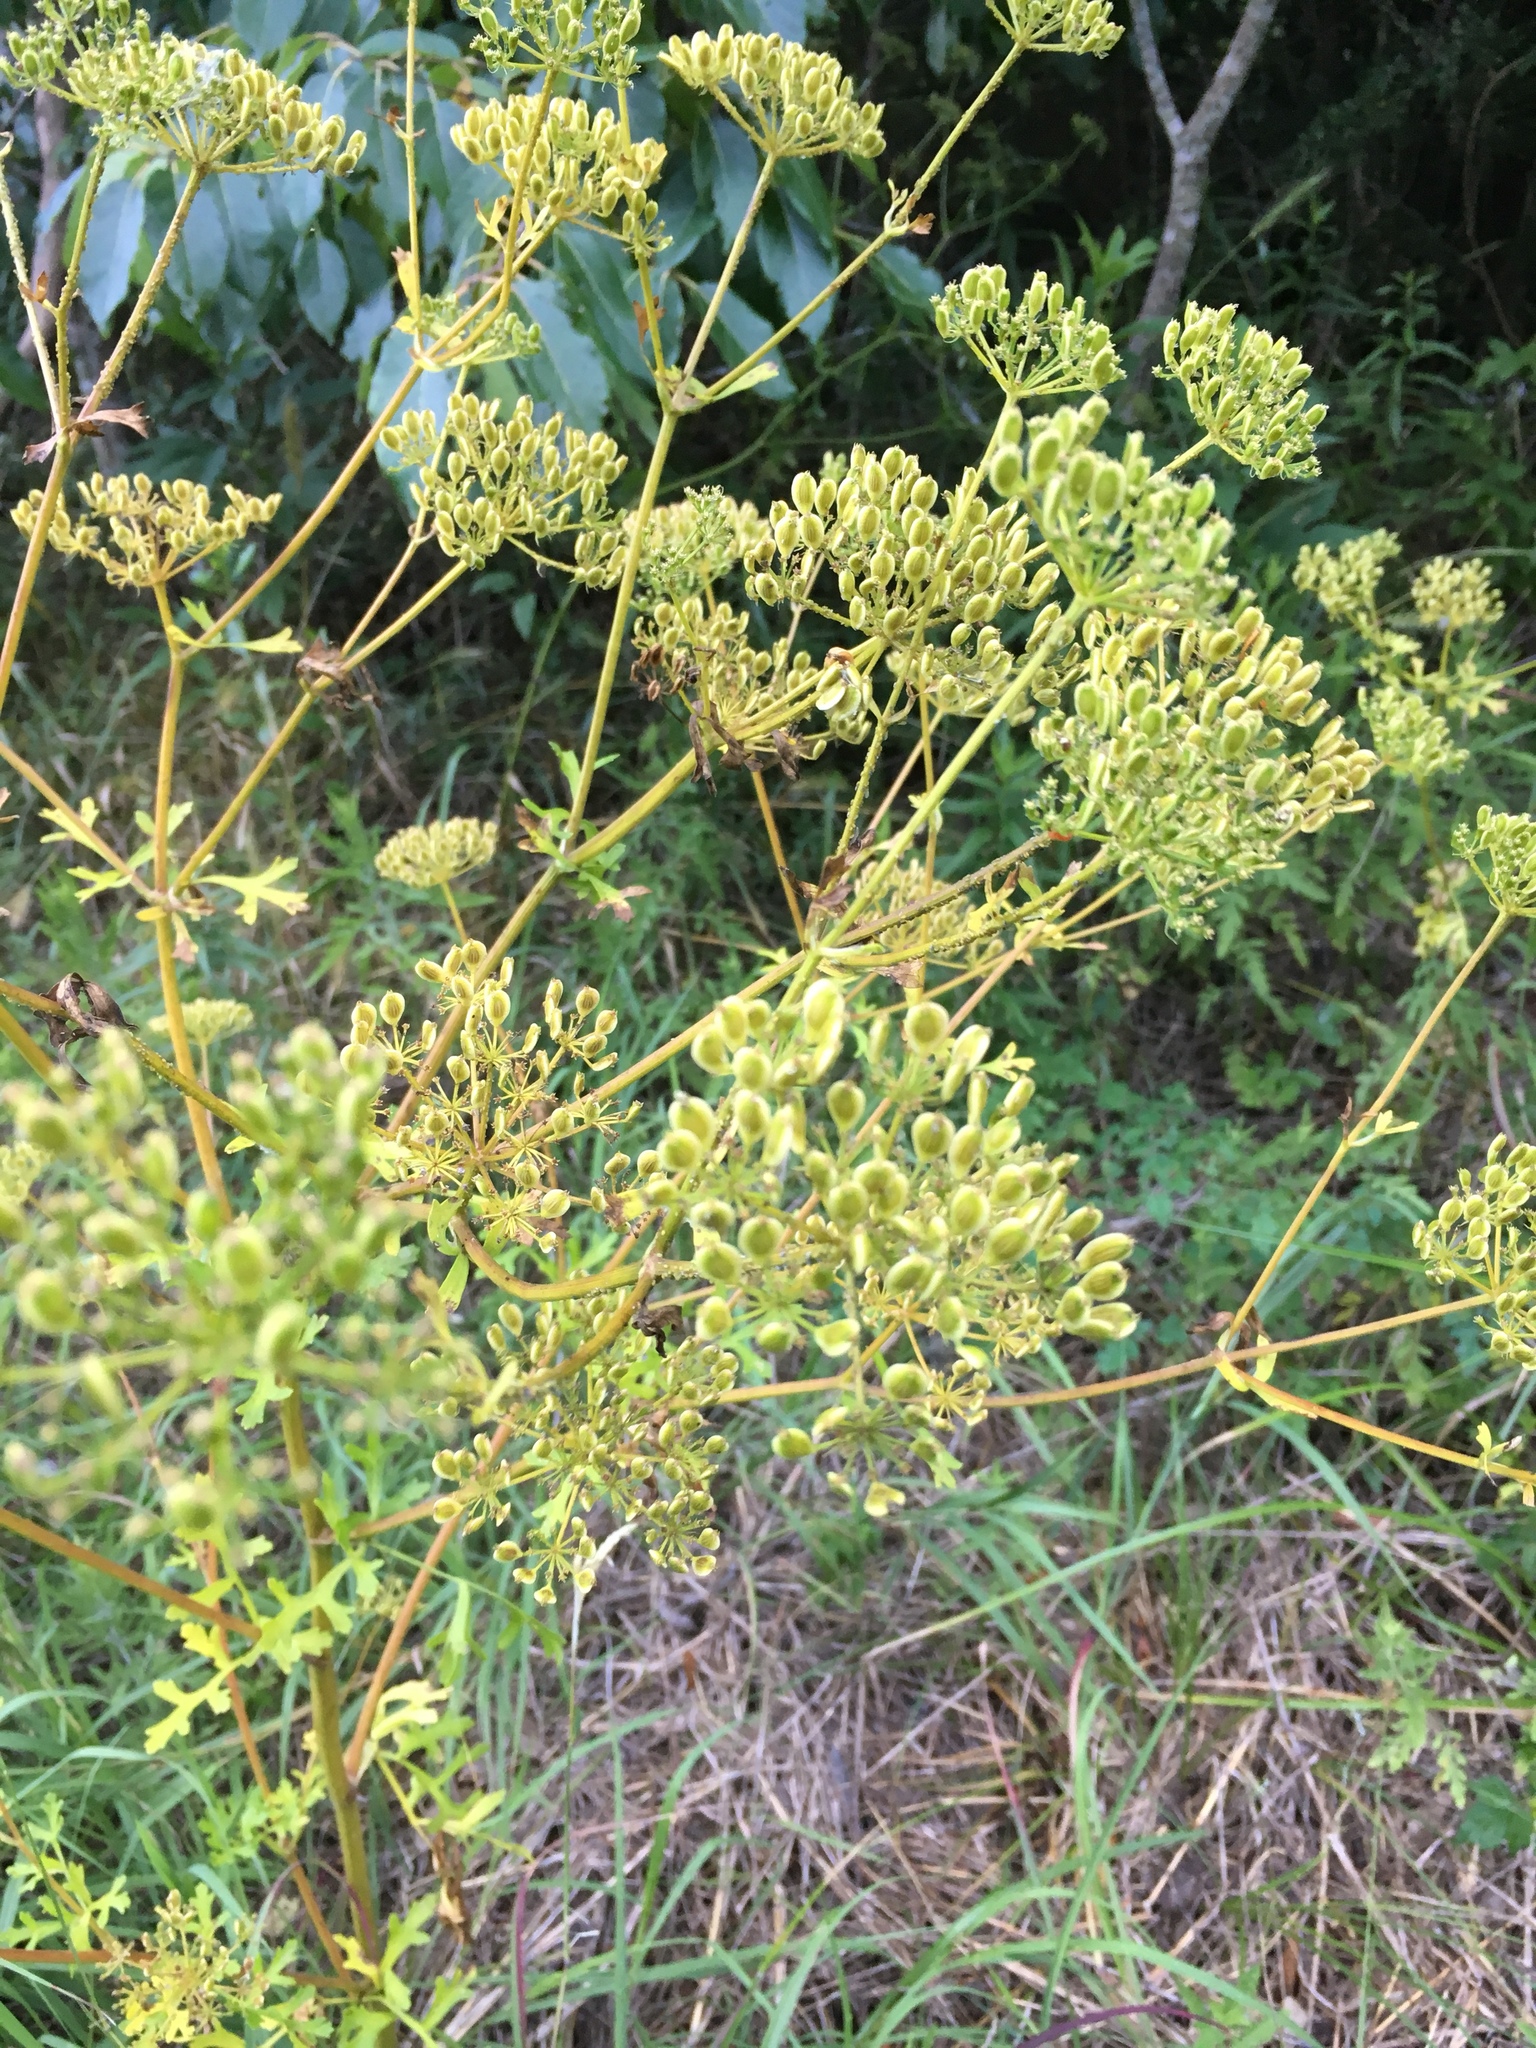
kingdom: Plantae
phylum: Tracheophyta
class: Magnoliopsida
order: Apiales
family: Apiaceae
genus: Polytaenia
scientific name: Polytaenia texana
